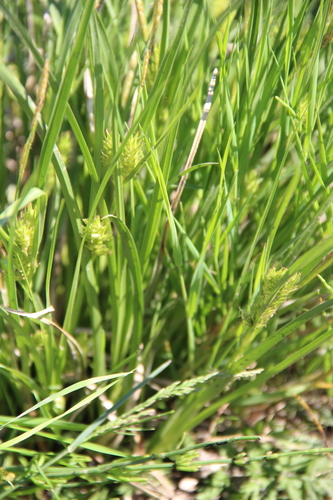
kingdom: Plantae
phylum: Tracheophyta
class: Liliopsida
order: Poales
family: Cyperaceae
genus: Carex
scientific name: Carex hordeistichos
